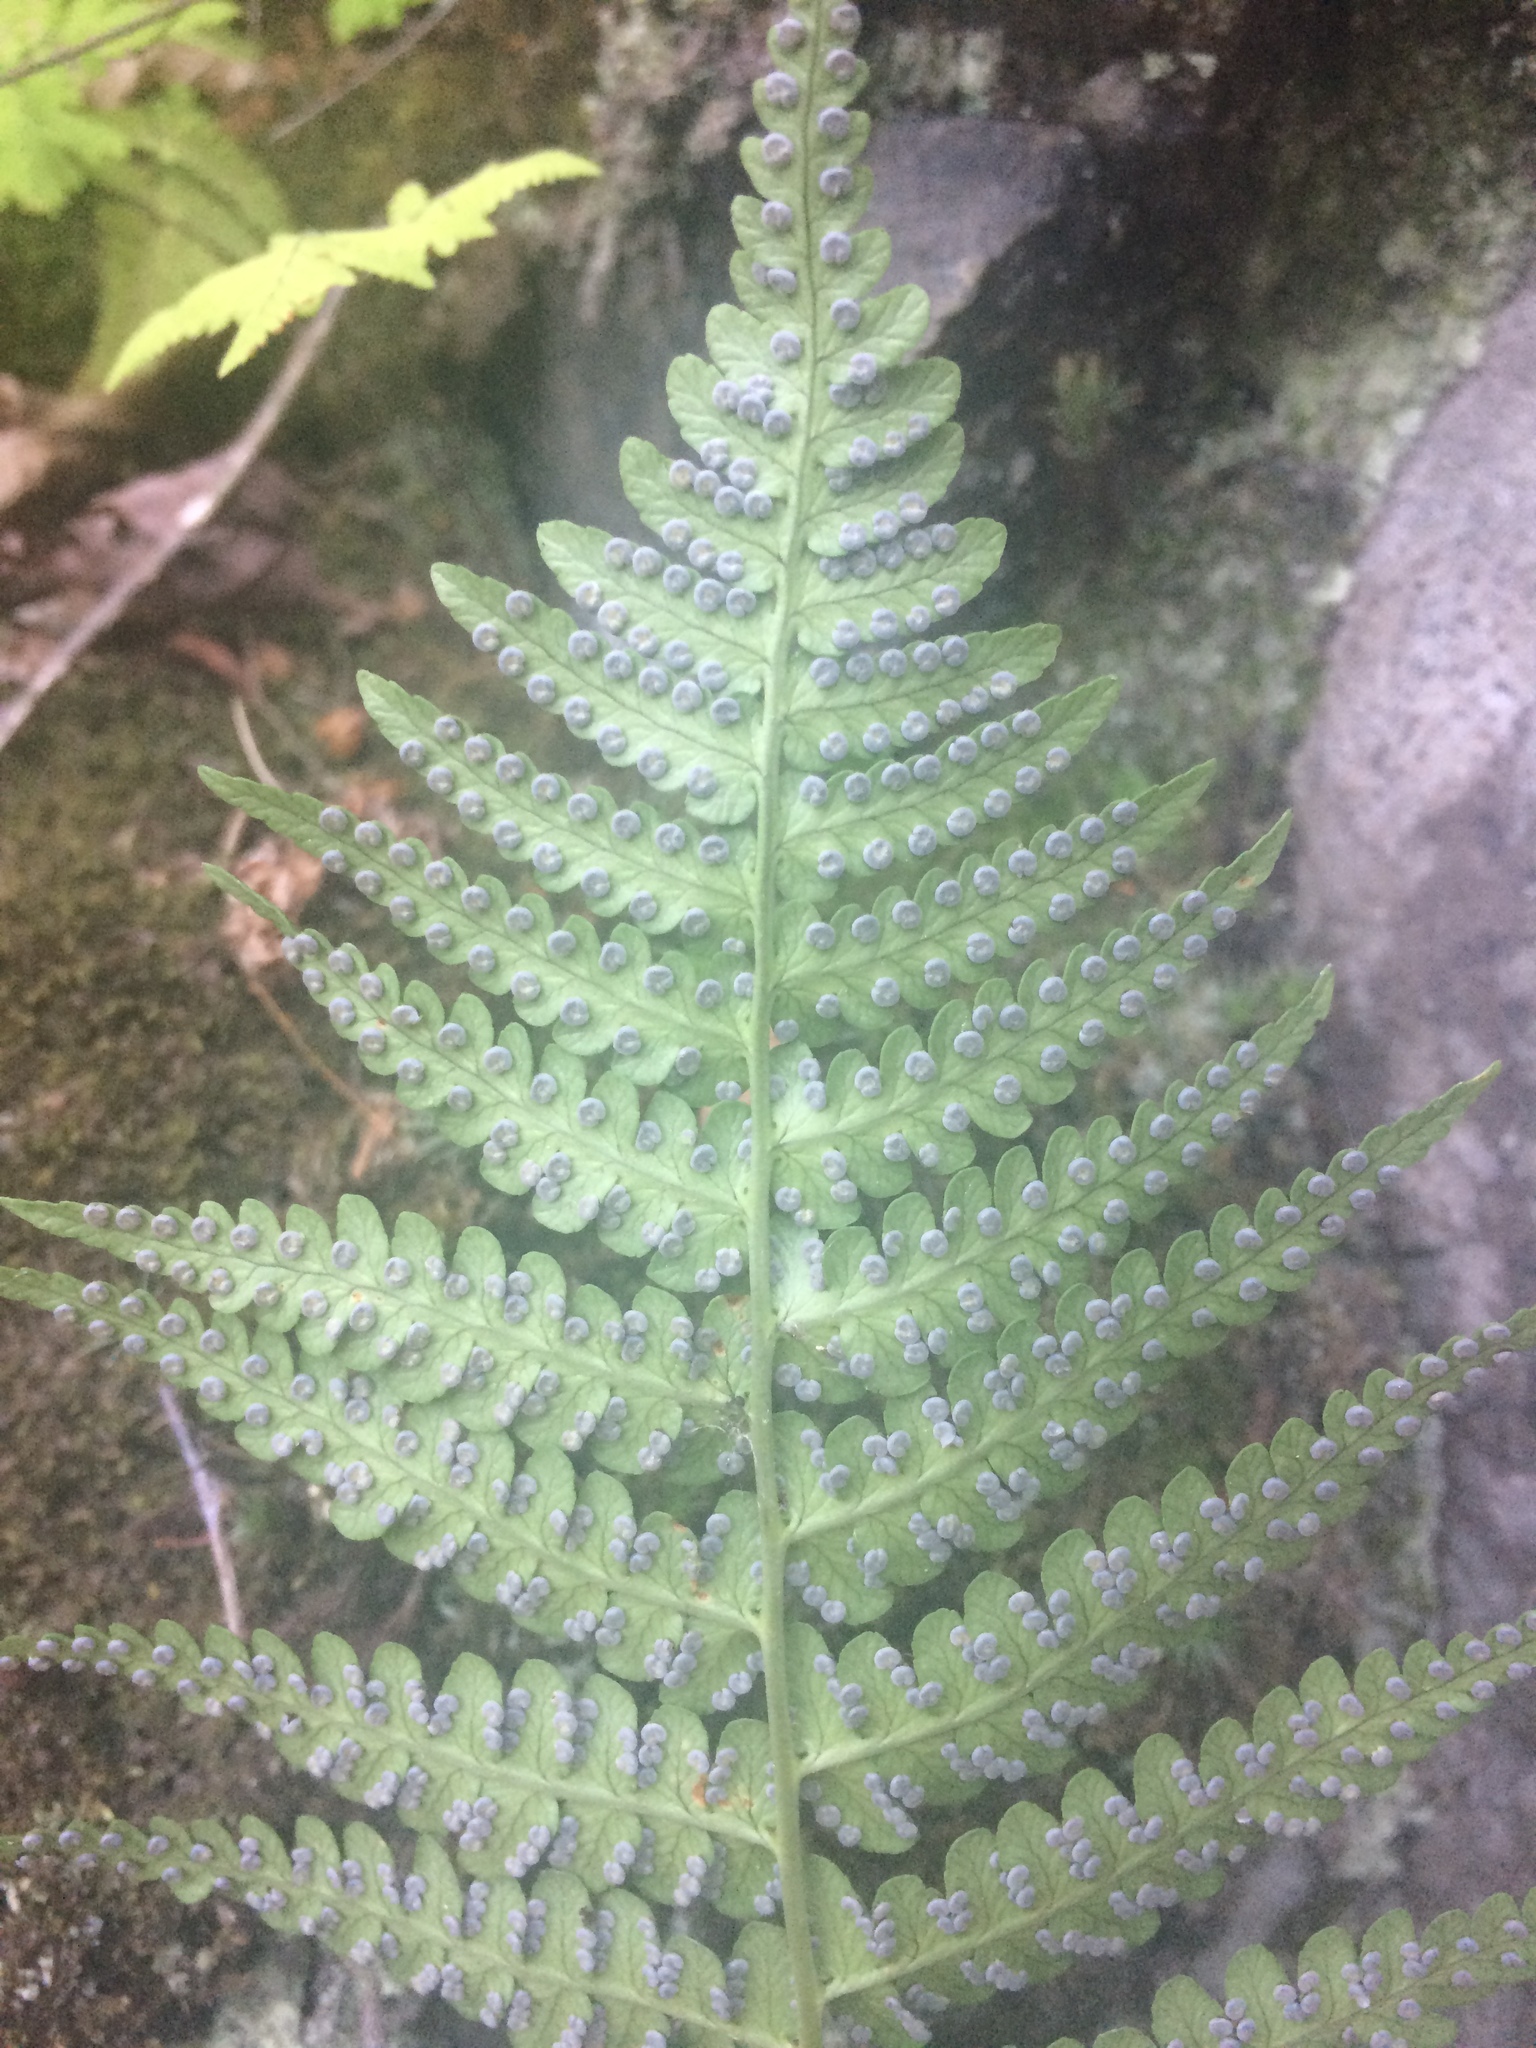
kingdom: Plantae
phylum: Tracheophyta
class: Polypodiopsida
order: Polypodiales
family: Dryopteridaceae
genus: Dryopteris
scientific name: Dryopteris marginalis
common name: Marginal wood fern
